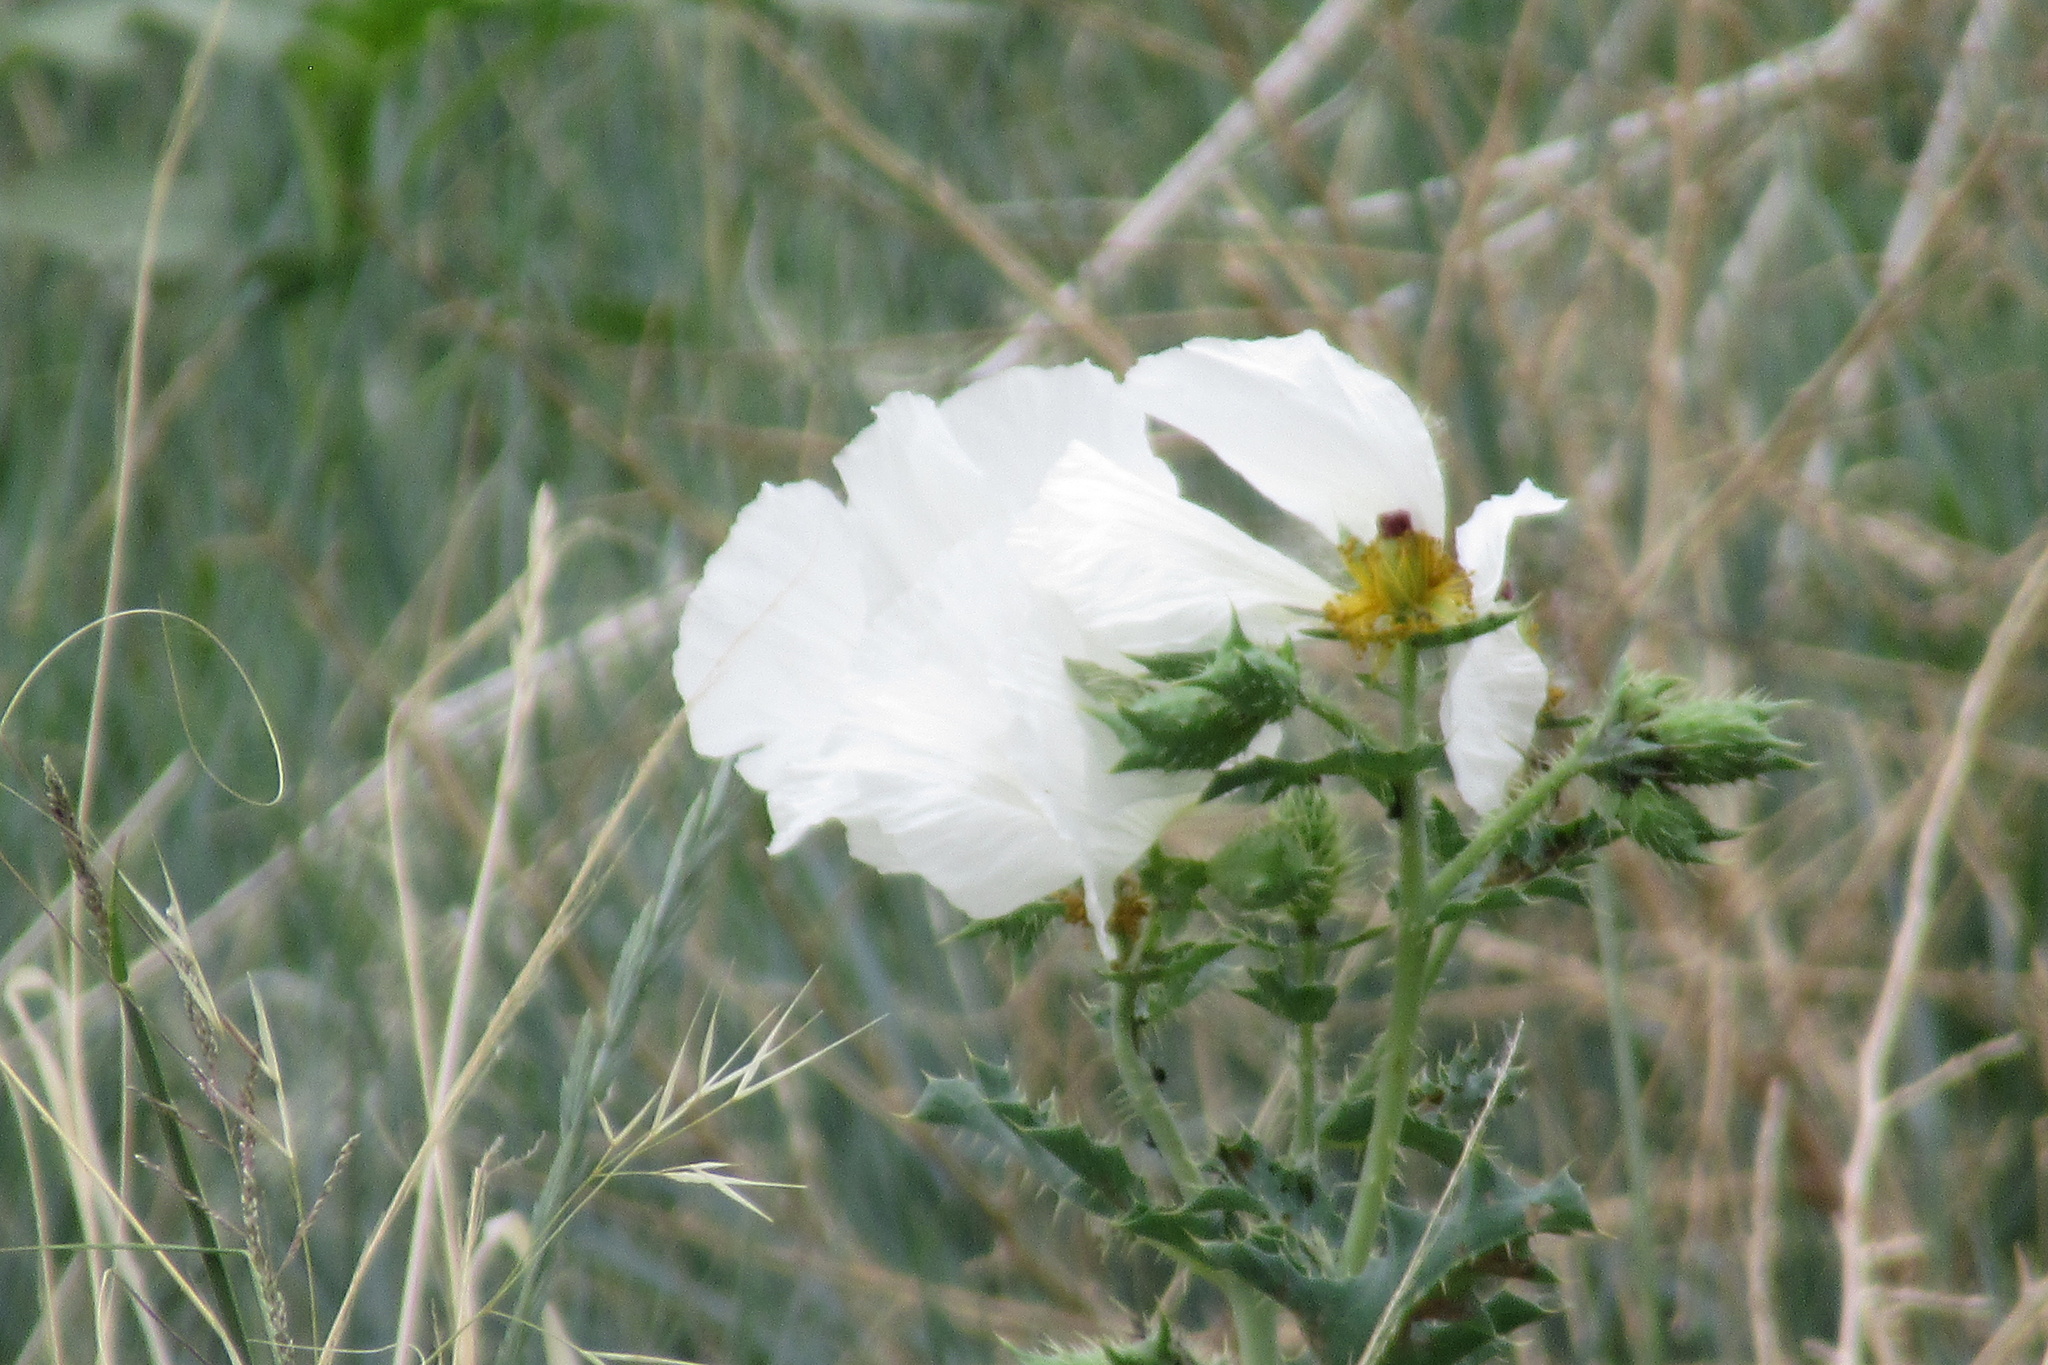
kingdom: Plantae
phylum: Tracheophyta
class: Magnoliopsida
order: Ranunculales
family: Papaveraceae
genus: Argemone
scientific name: Argemone polyanthemos
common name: Plains prickly-poppy
